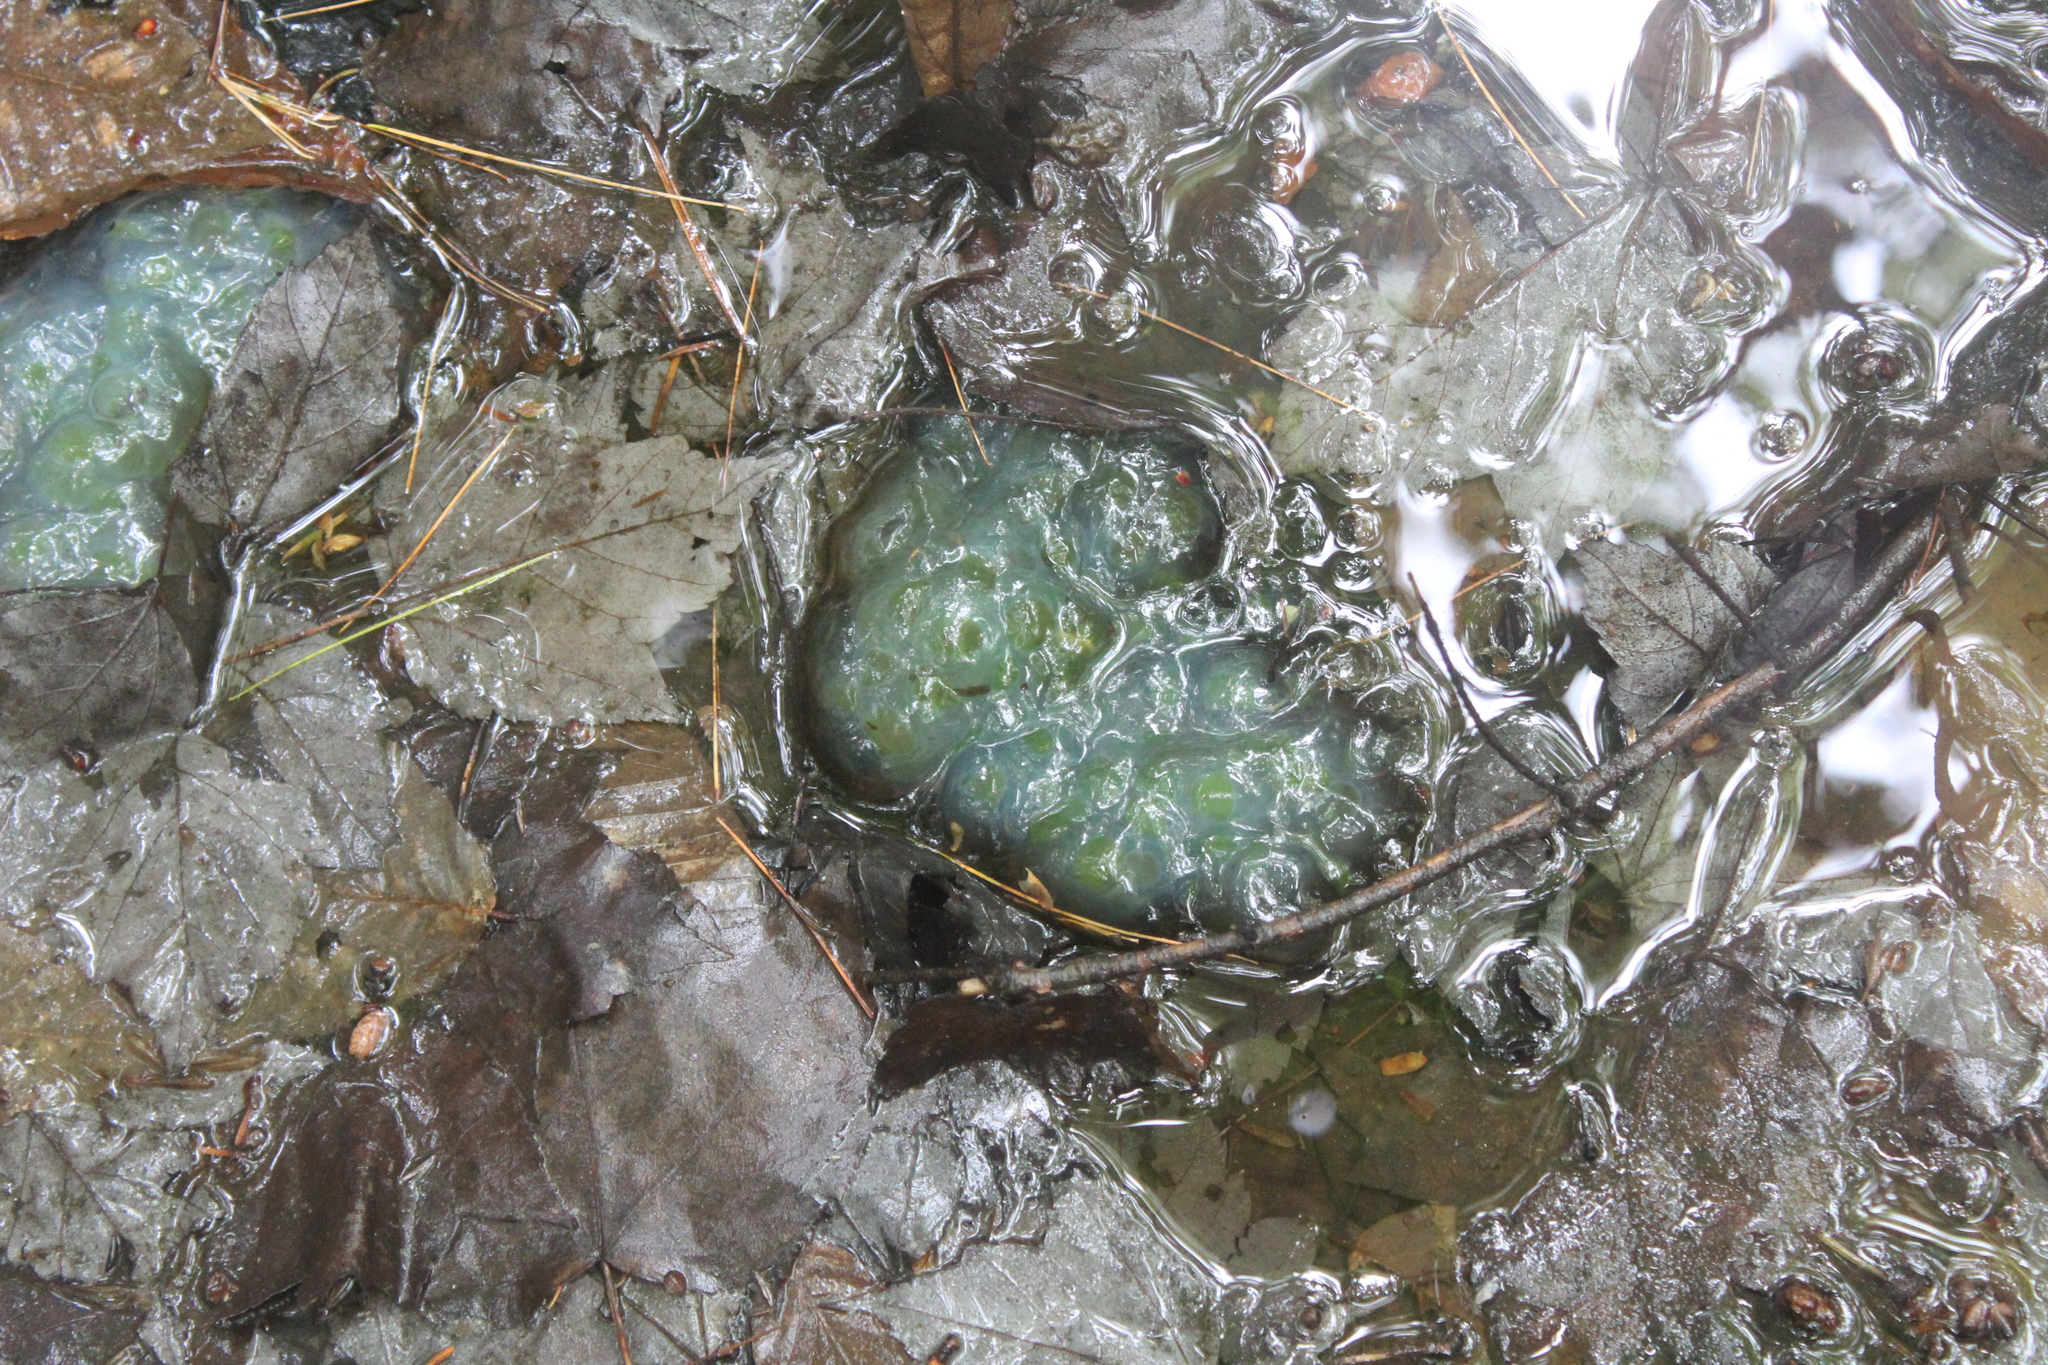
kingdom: Animalia
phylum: Chordata
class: Amphibia
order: Caudata
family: Ambystomatidae
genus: Ambystoma
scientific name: Ambystoma maculatum
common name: Spotted salamander
